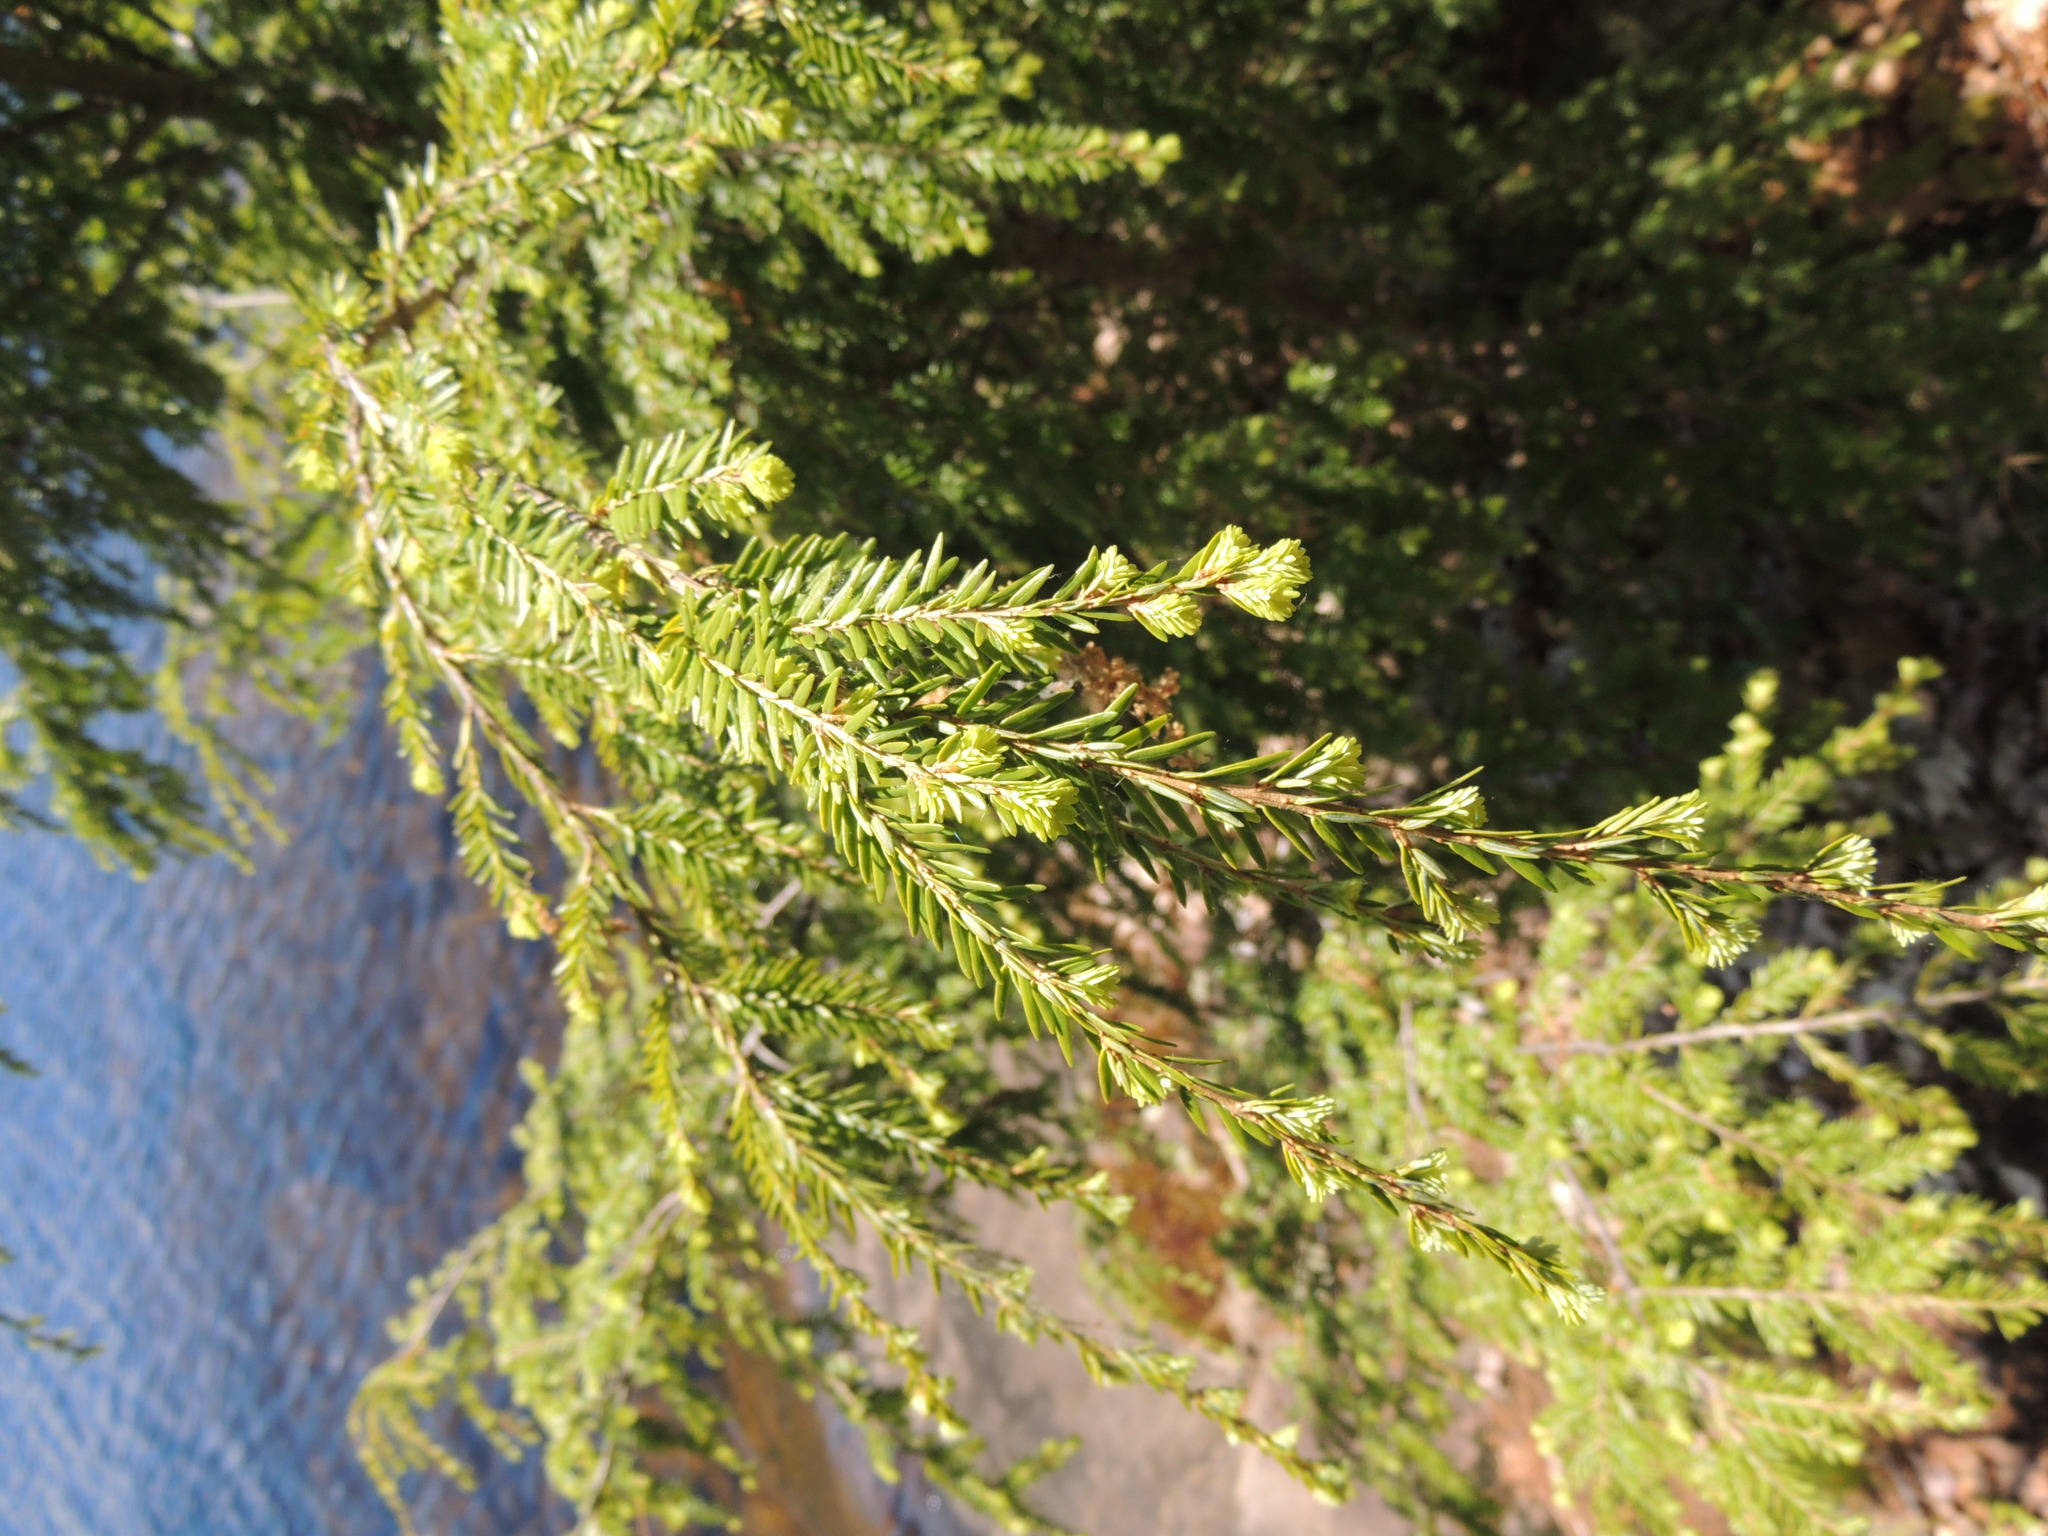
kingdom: Plantae
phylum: Tracheophyta
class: Pinopsida
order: Pinales
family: Pinaceae
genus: Tsuga
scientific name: Tsuga canadensis
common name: Eastern hemlock
